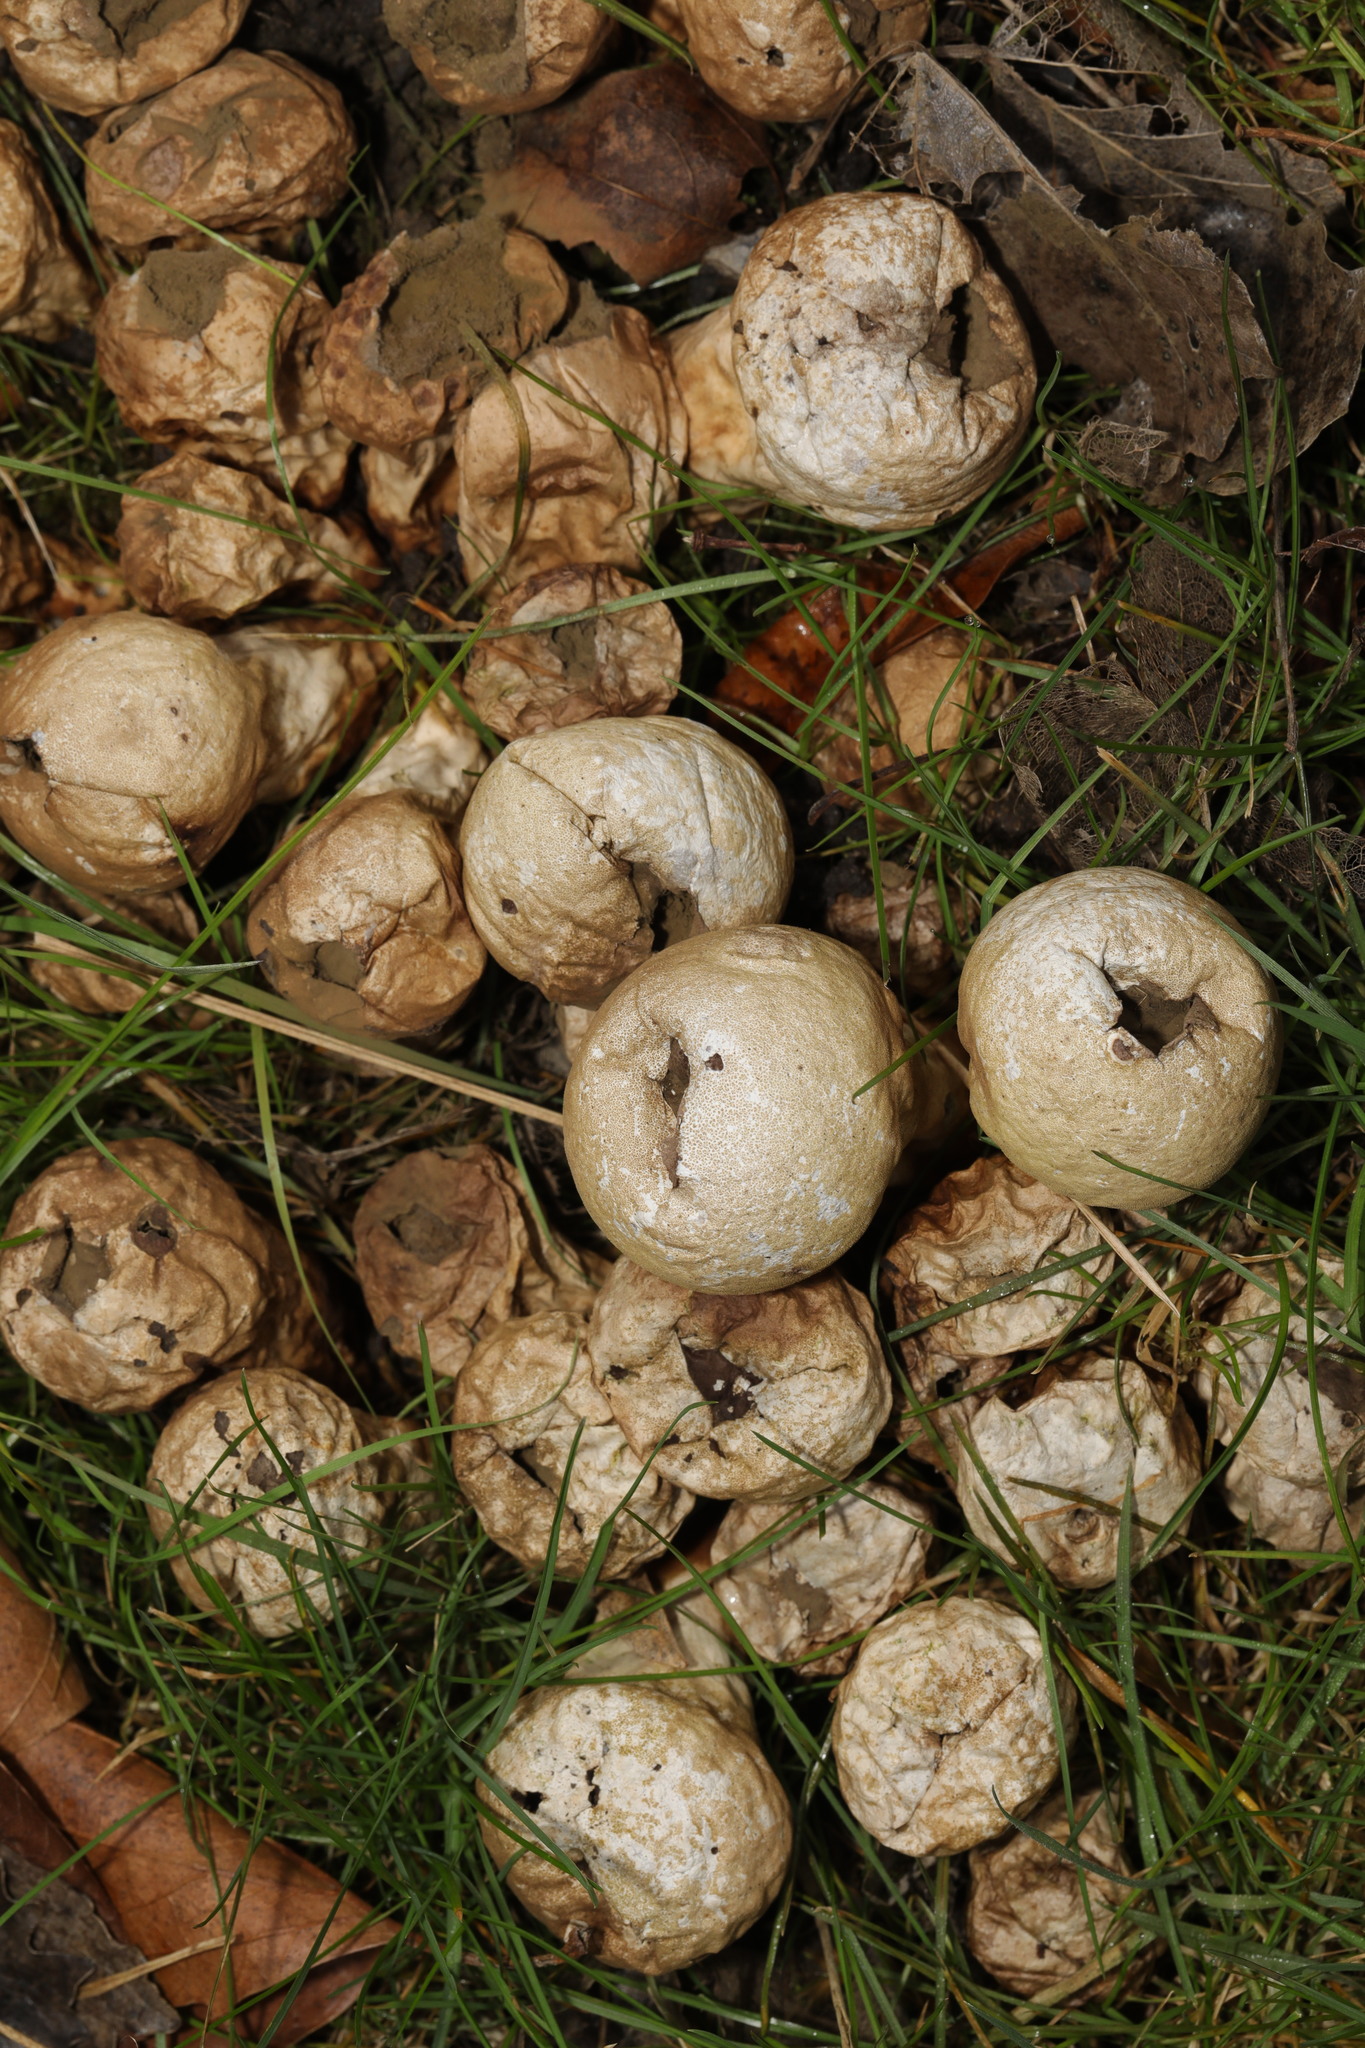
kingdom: Fungi
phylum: Basidiomycota
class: Agaricomycetes
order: Agaricales
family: Lycoperdaceae
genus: Apioperdon
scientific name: Apioperdon pyriforme
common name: Pear-shaped puffball
